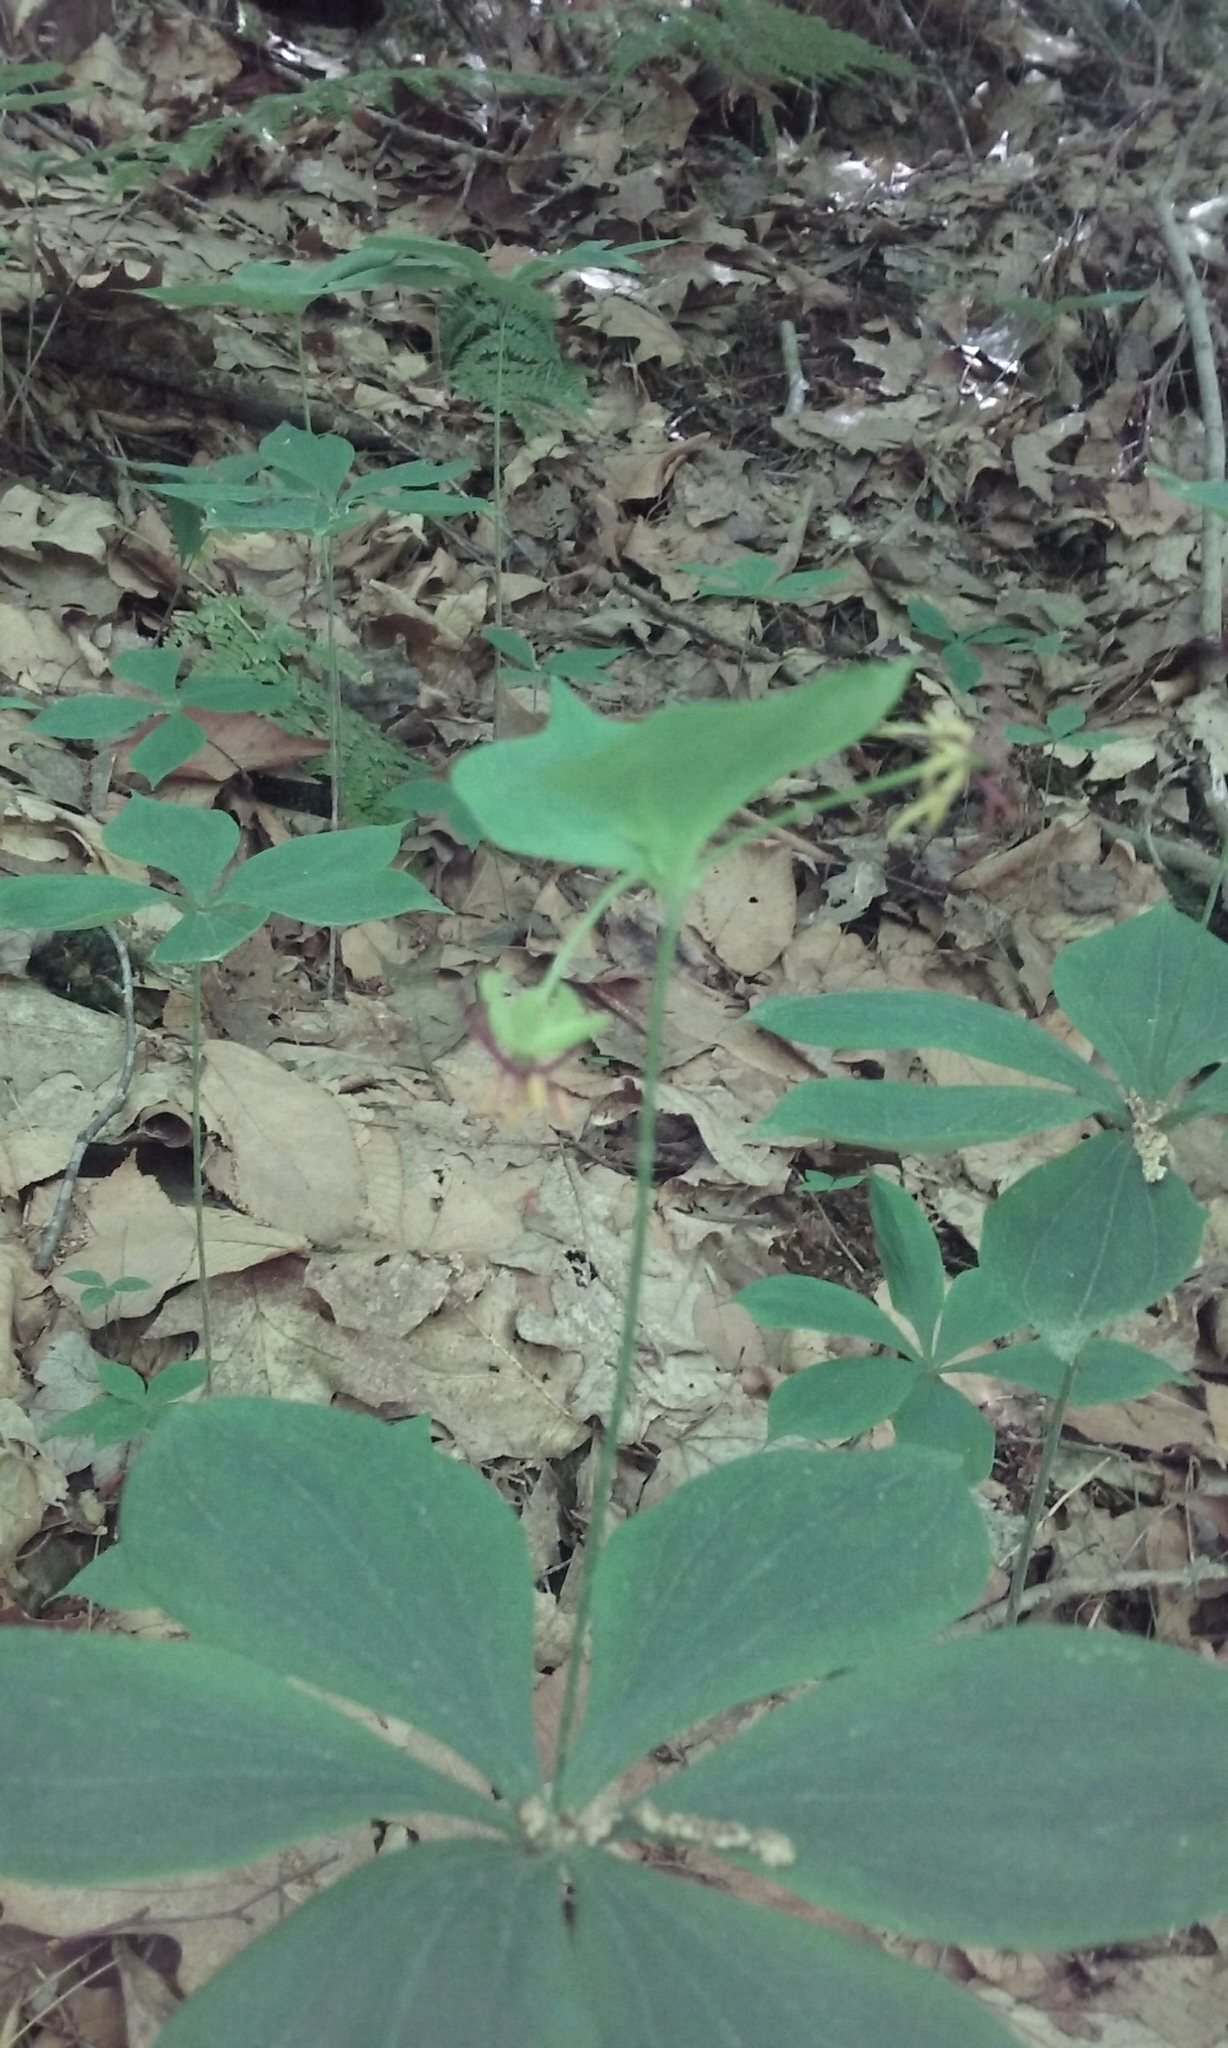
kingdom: Plantae
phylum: Tracheophyta
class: Liliopsida
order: Liliales
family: Liliaceae
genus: Medeola
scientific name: Medeola virginiana
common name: Indian cucumber-root
